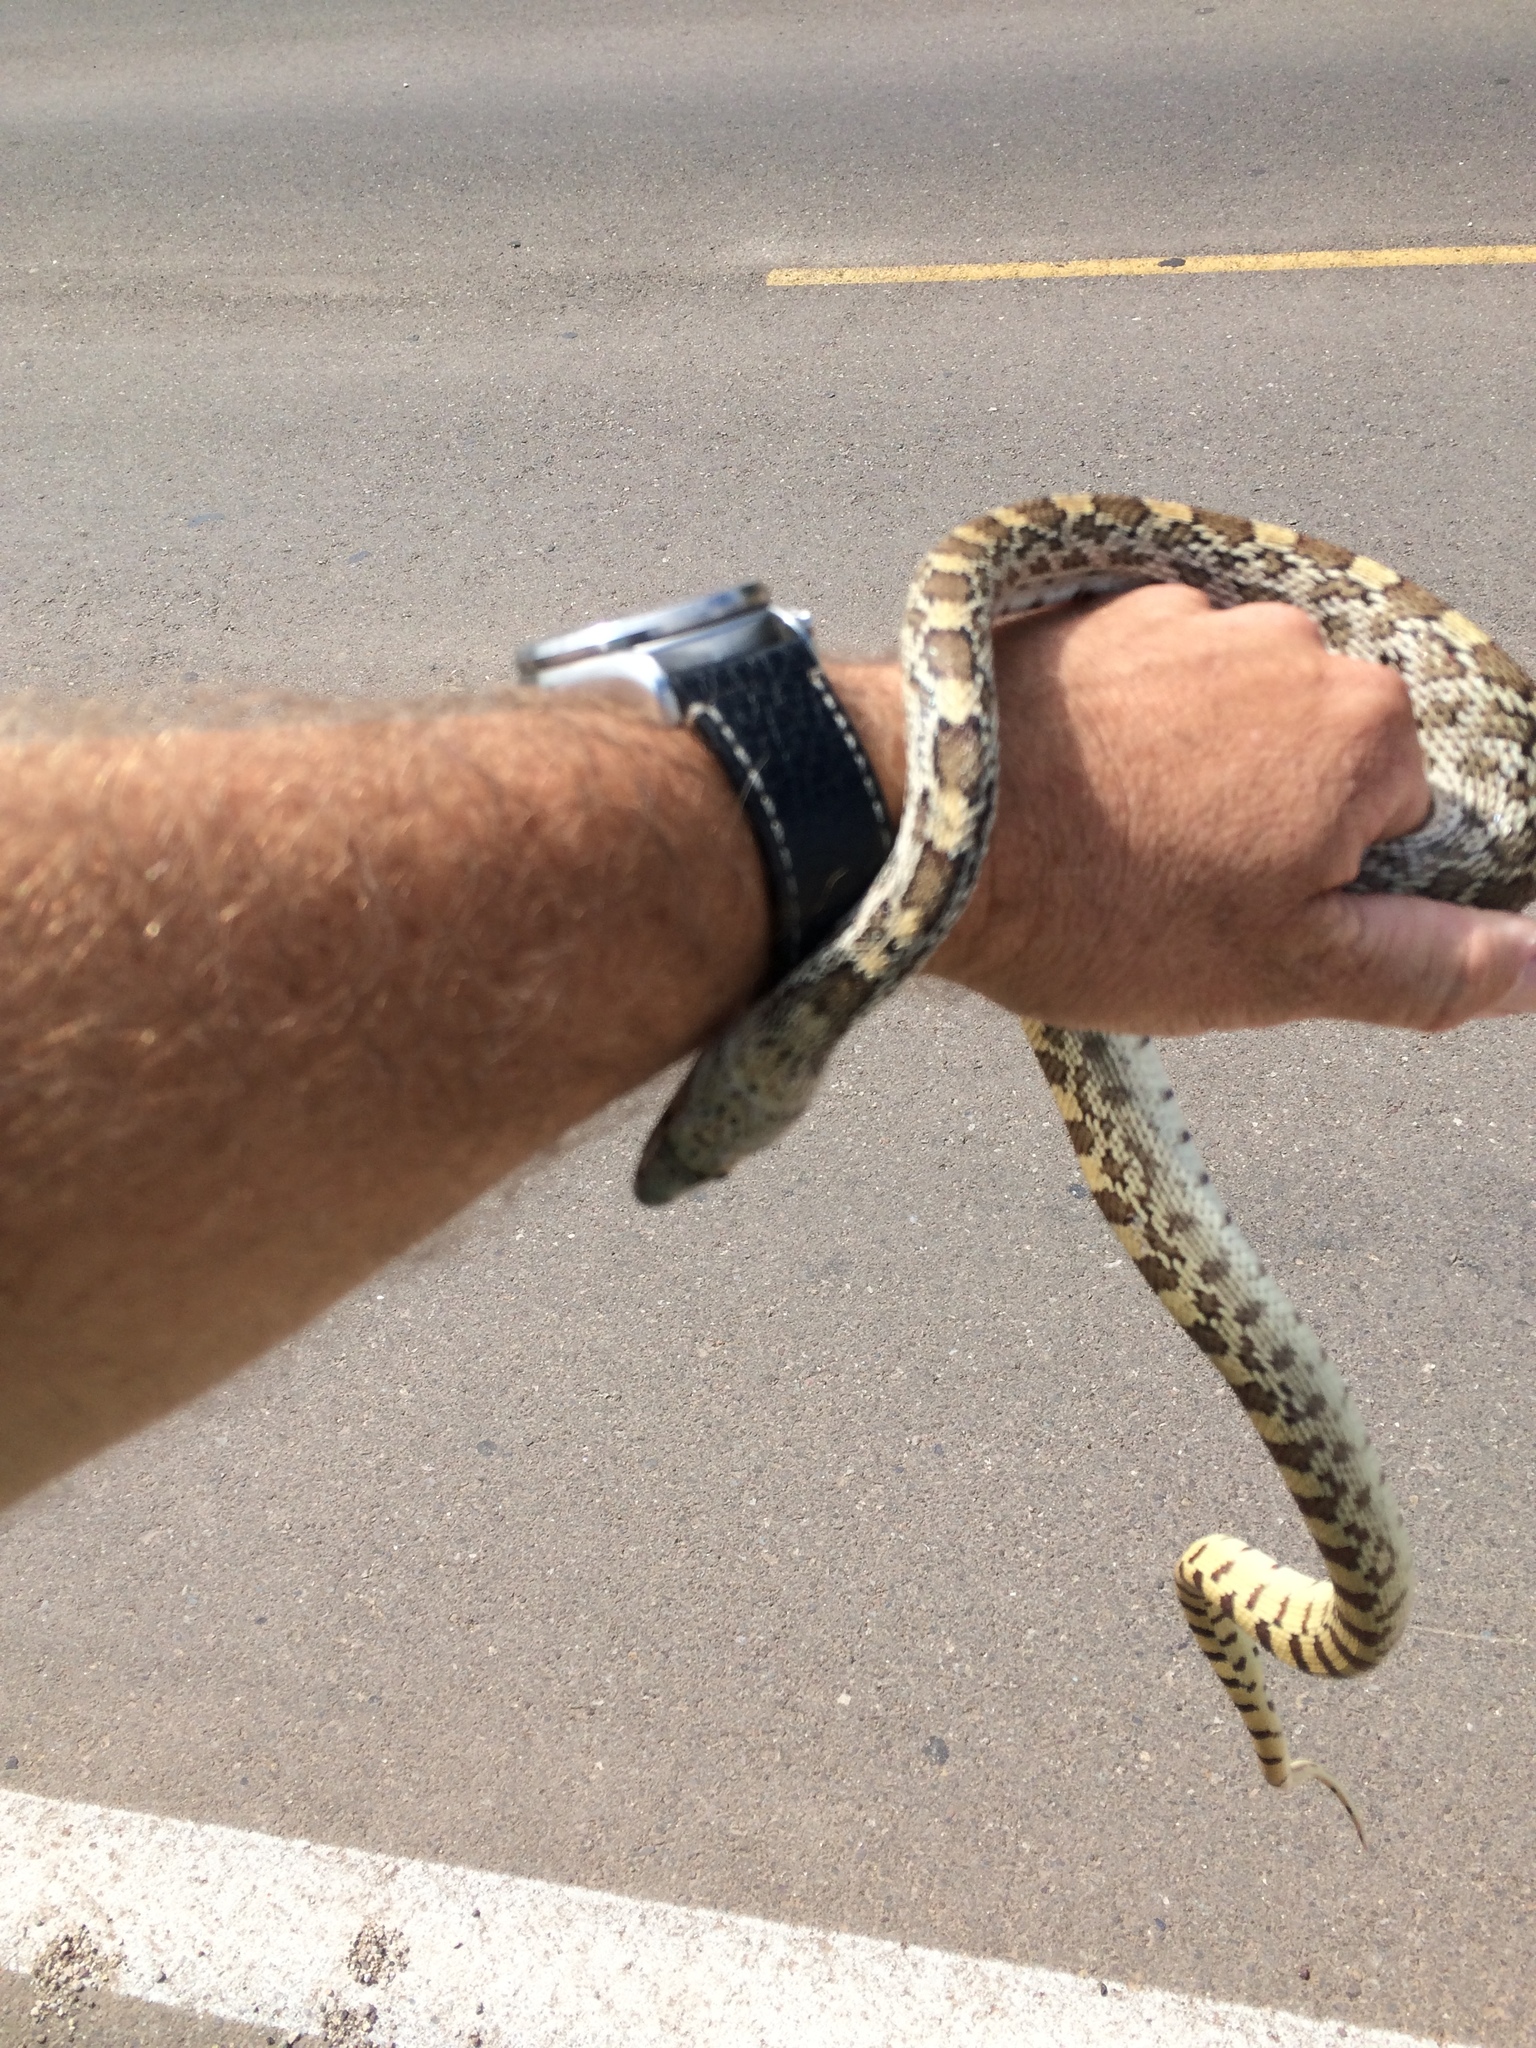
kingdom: Animalia
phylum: Chordata
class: Squamata
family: Colubridae
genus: Pituophis
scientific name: Pituophis catenifer
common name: Gopher snake
